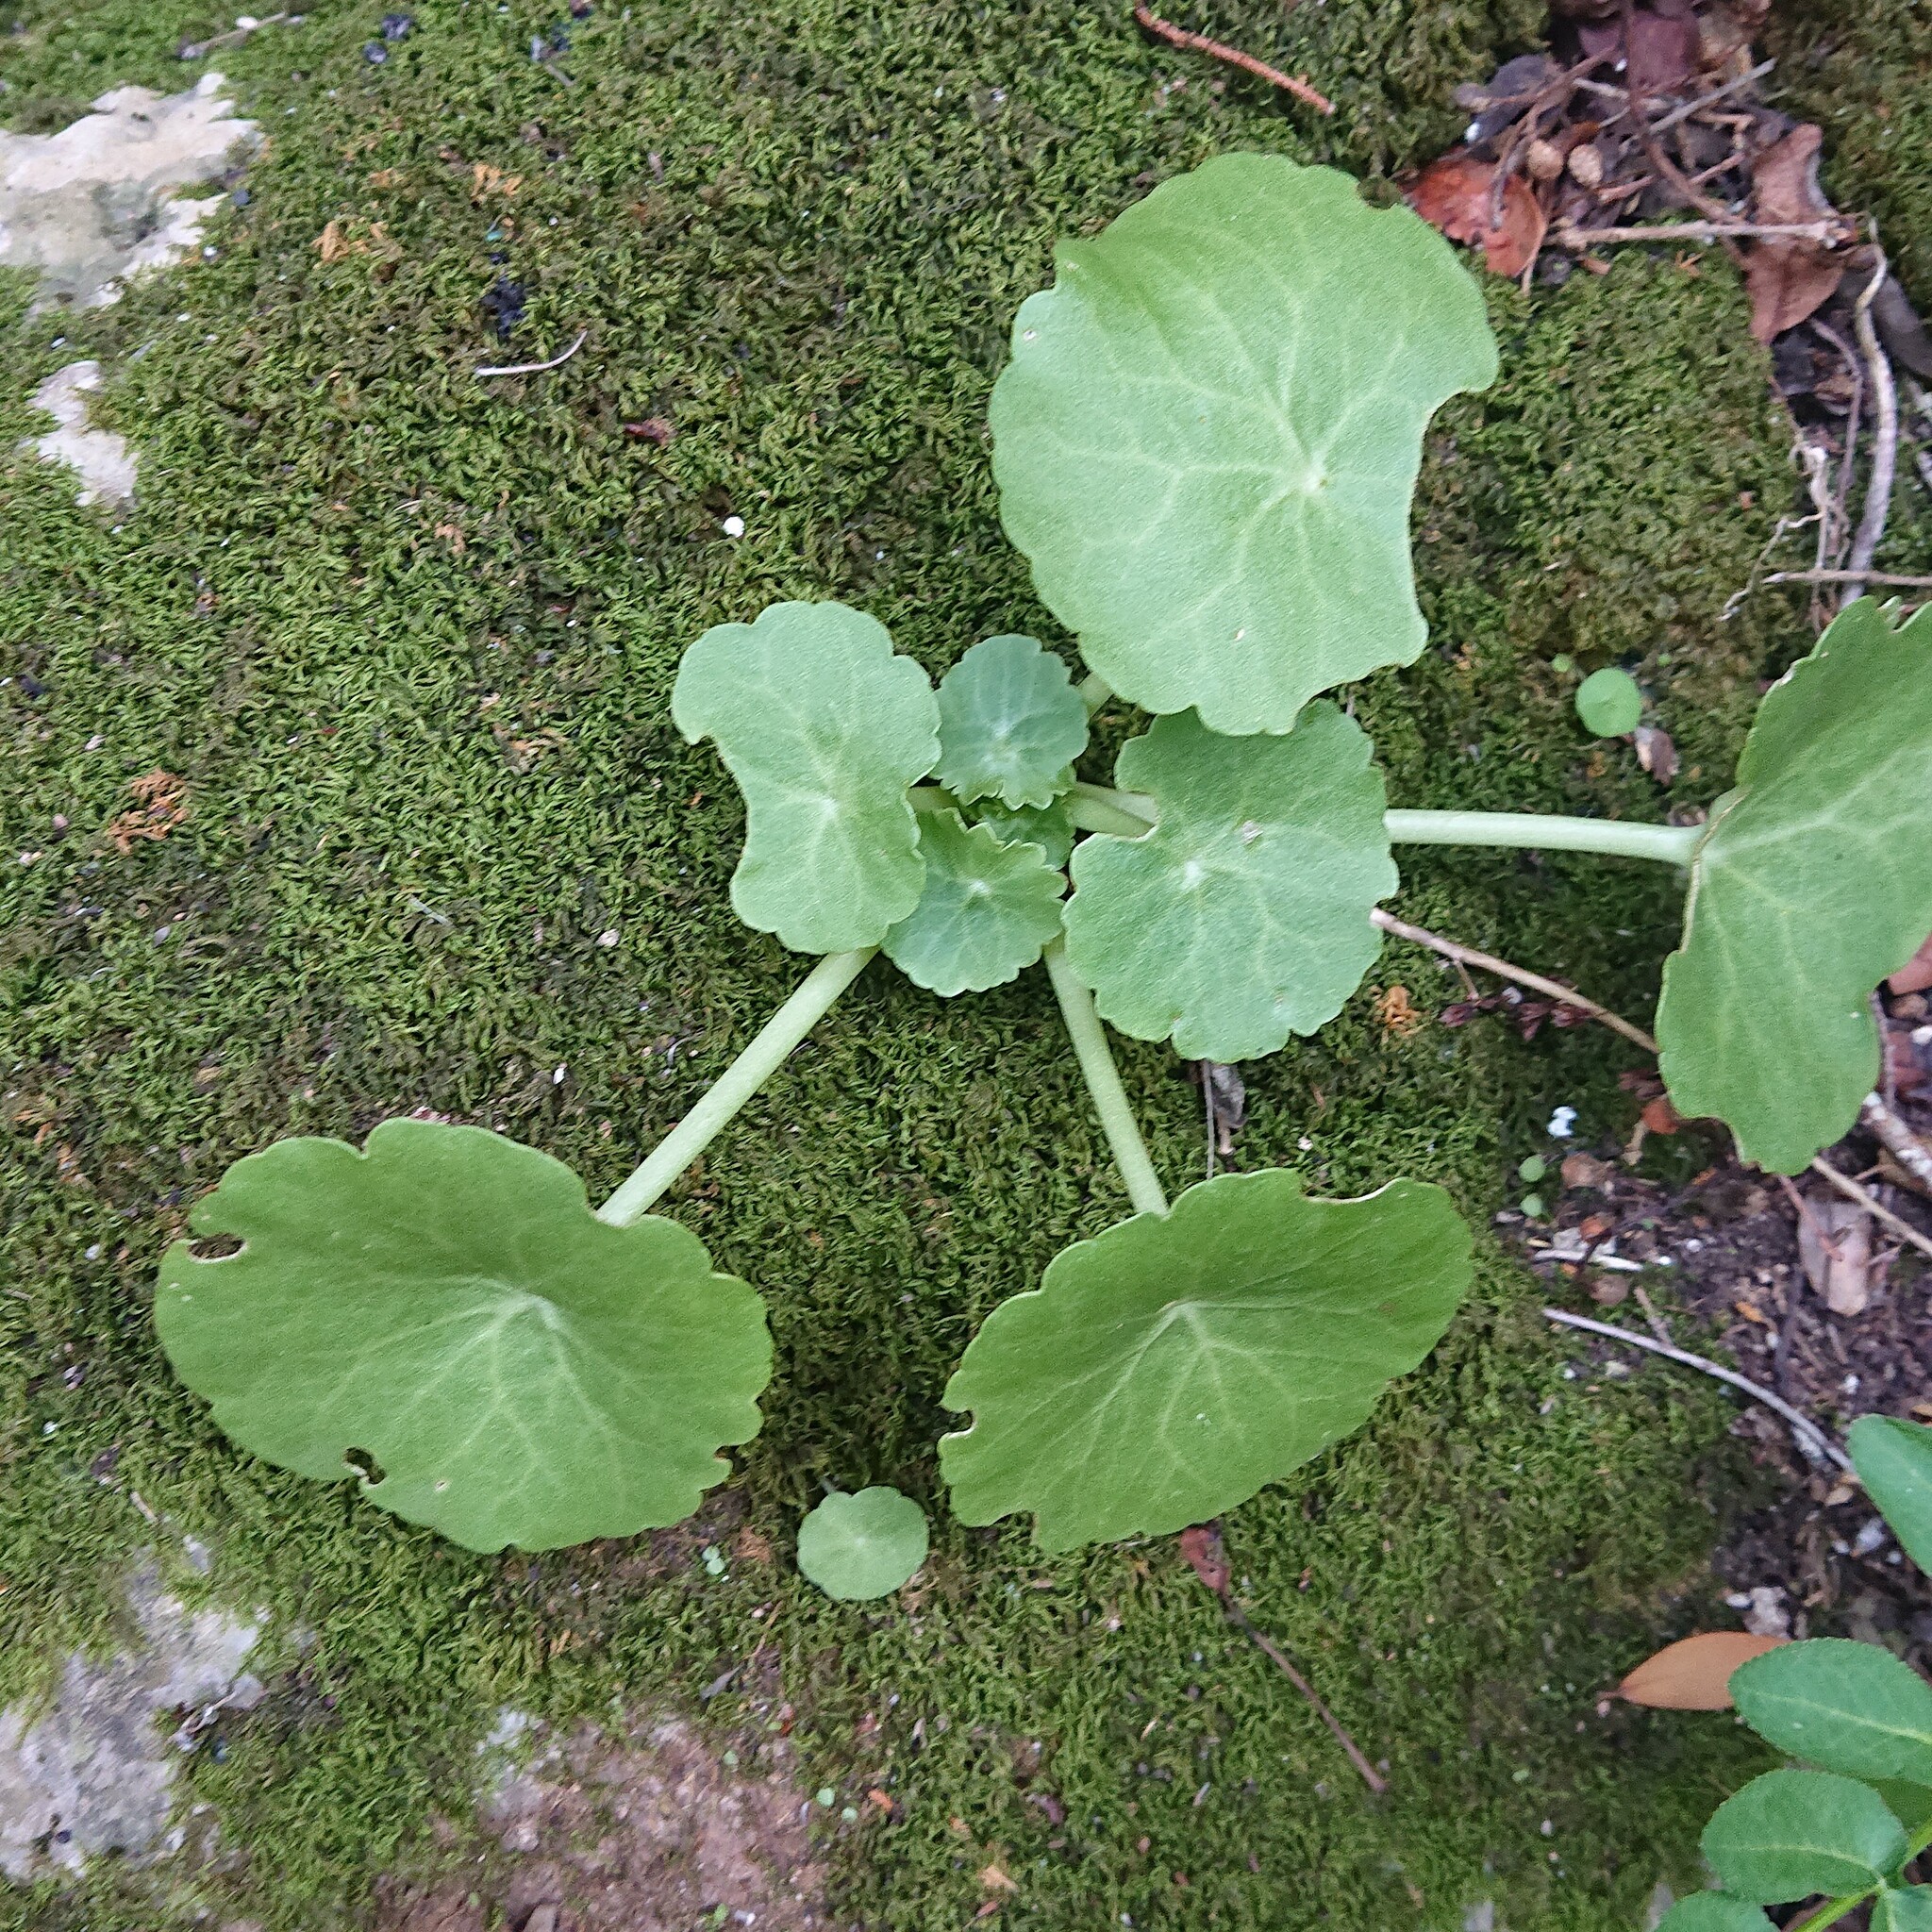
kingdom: Plantae
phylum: Tracheophyta
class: Magnoliopsida
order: Saxifragales
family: Crassulaceae
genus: Umbilicus
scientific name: Umbilicus rupestris
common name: Navelwort
